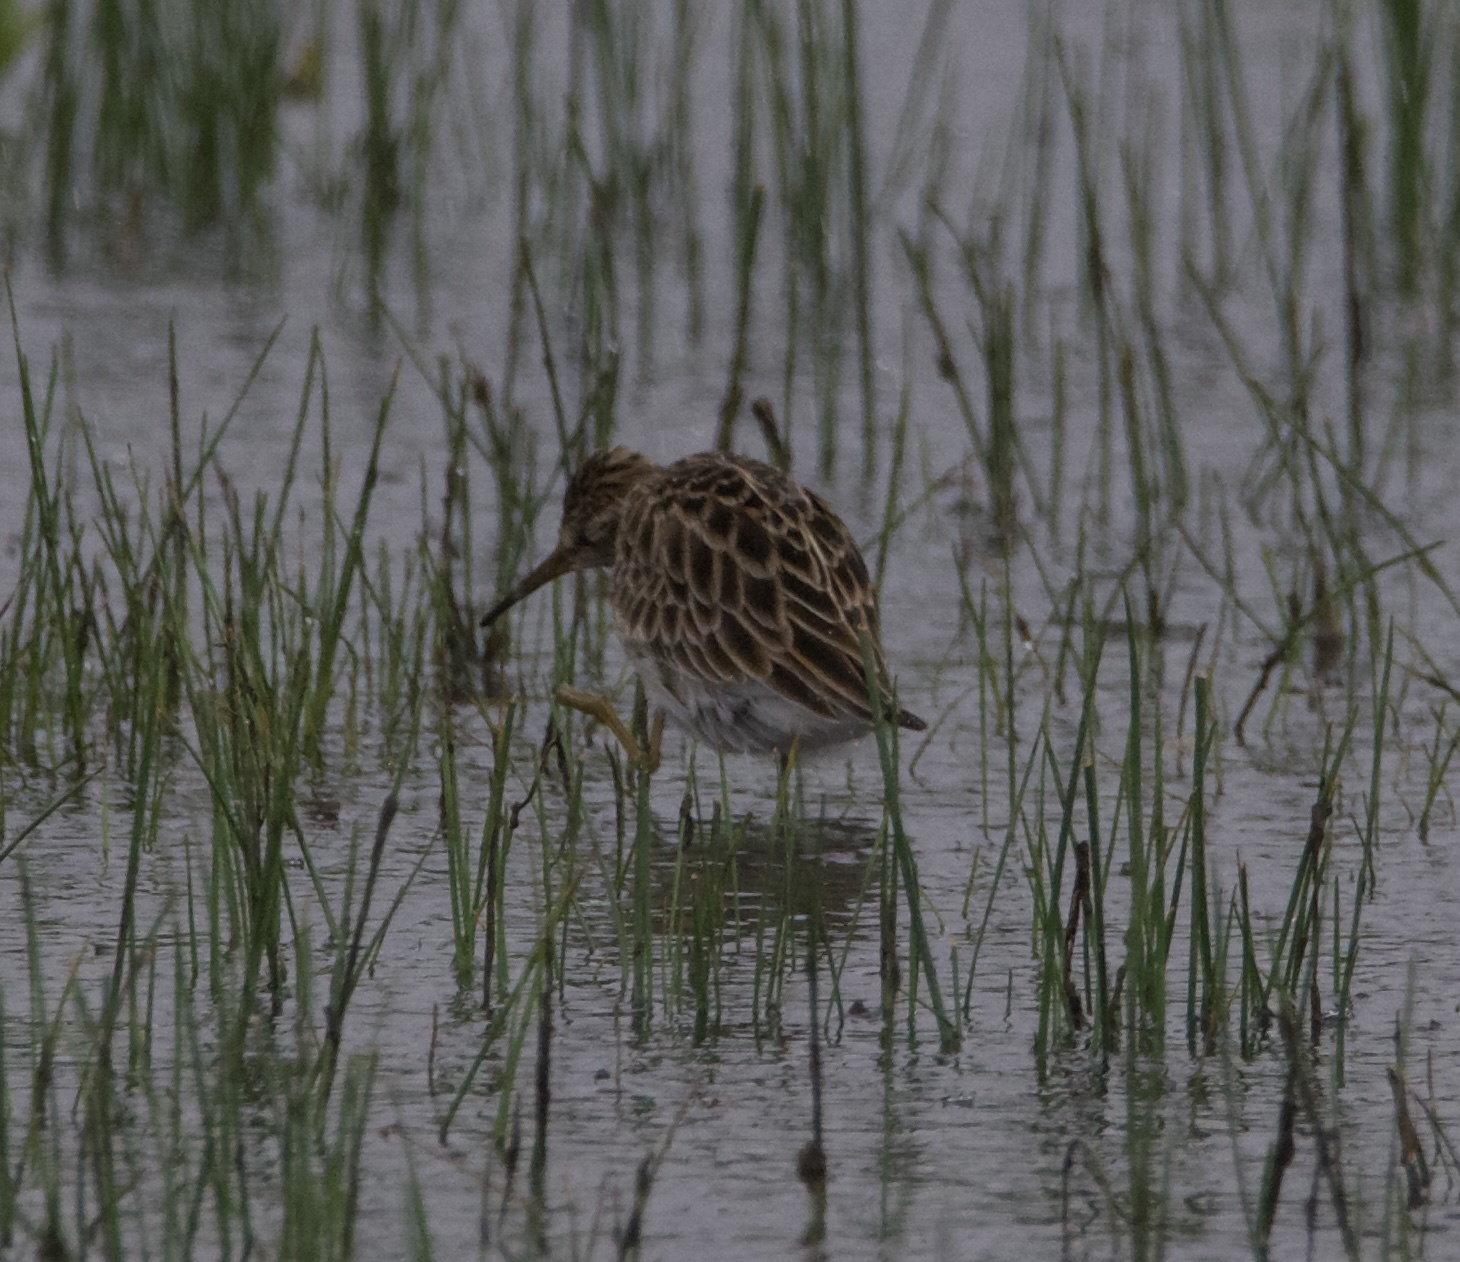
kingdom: Animalia
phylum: Chordata
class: Aves
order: Charadriiformes
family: Scolopacidae
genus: Calidris
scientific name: Calidris melanotos
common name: Pectoral sandpiper
